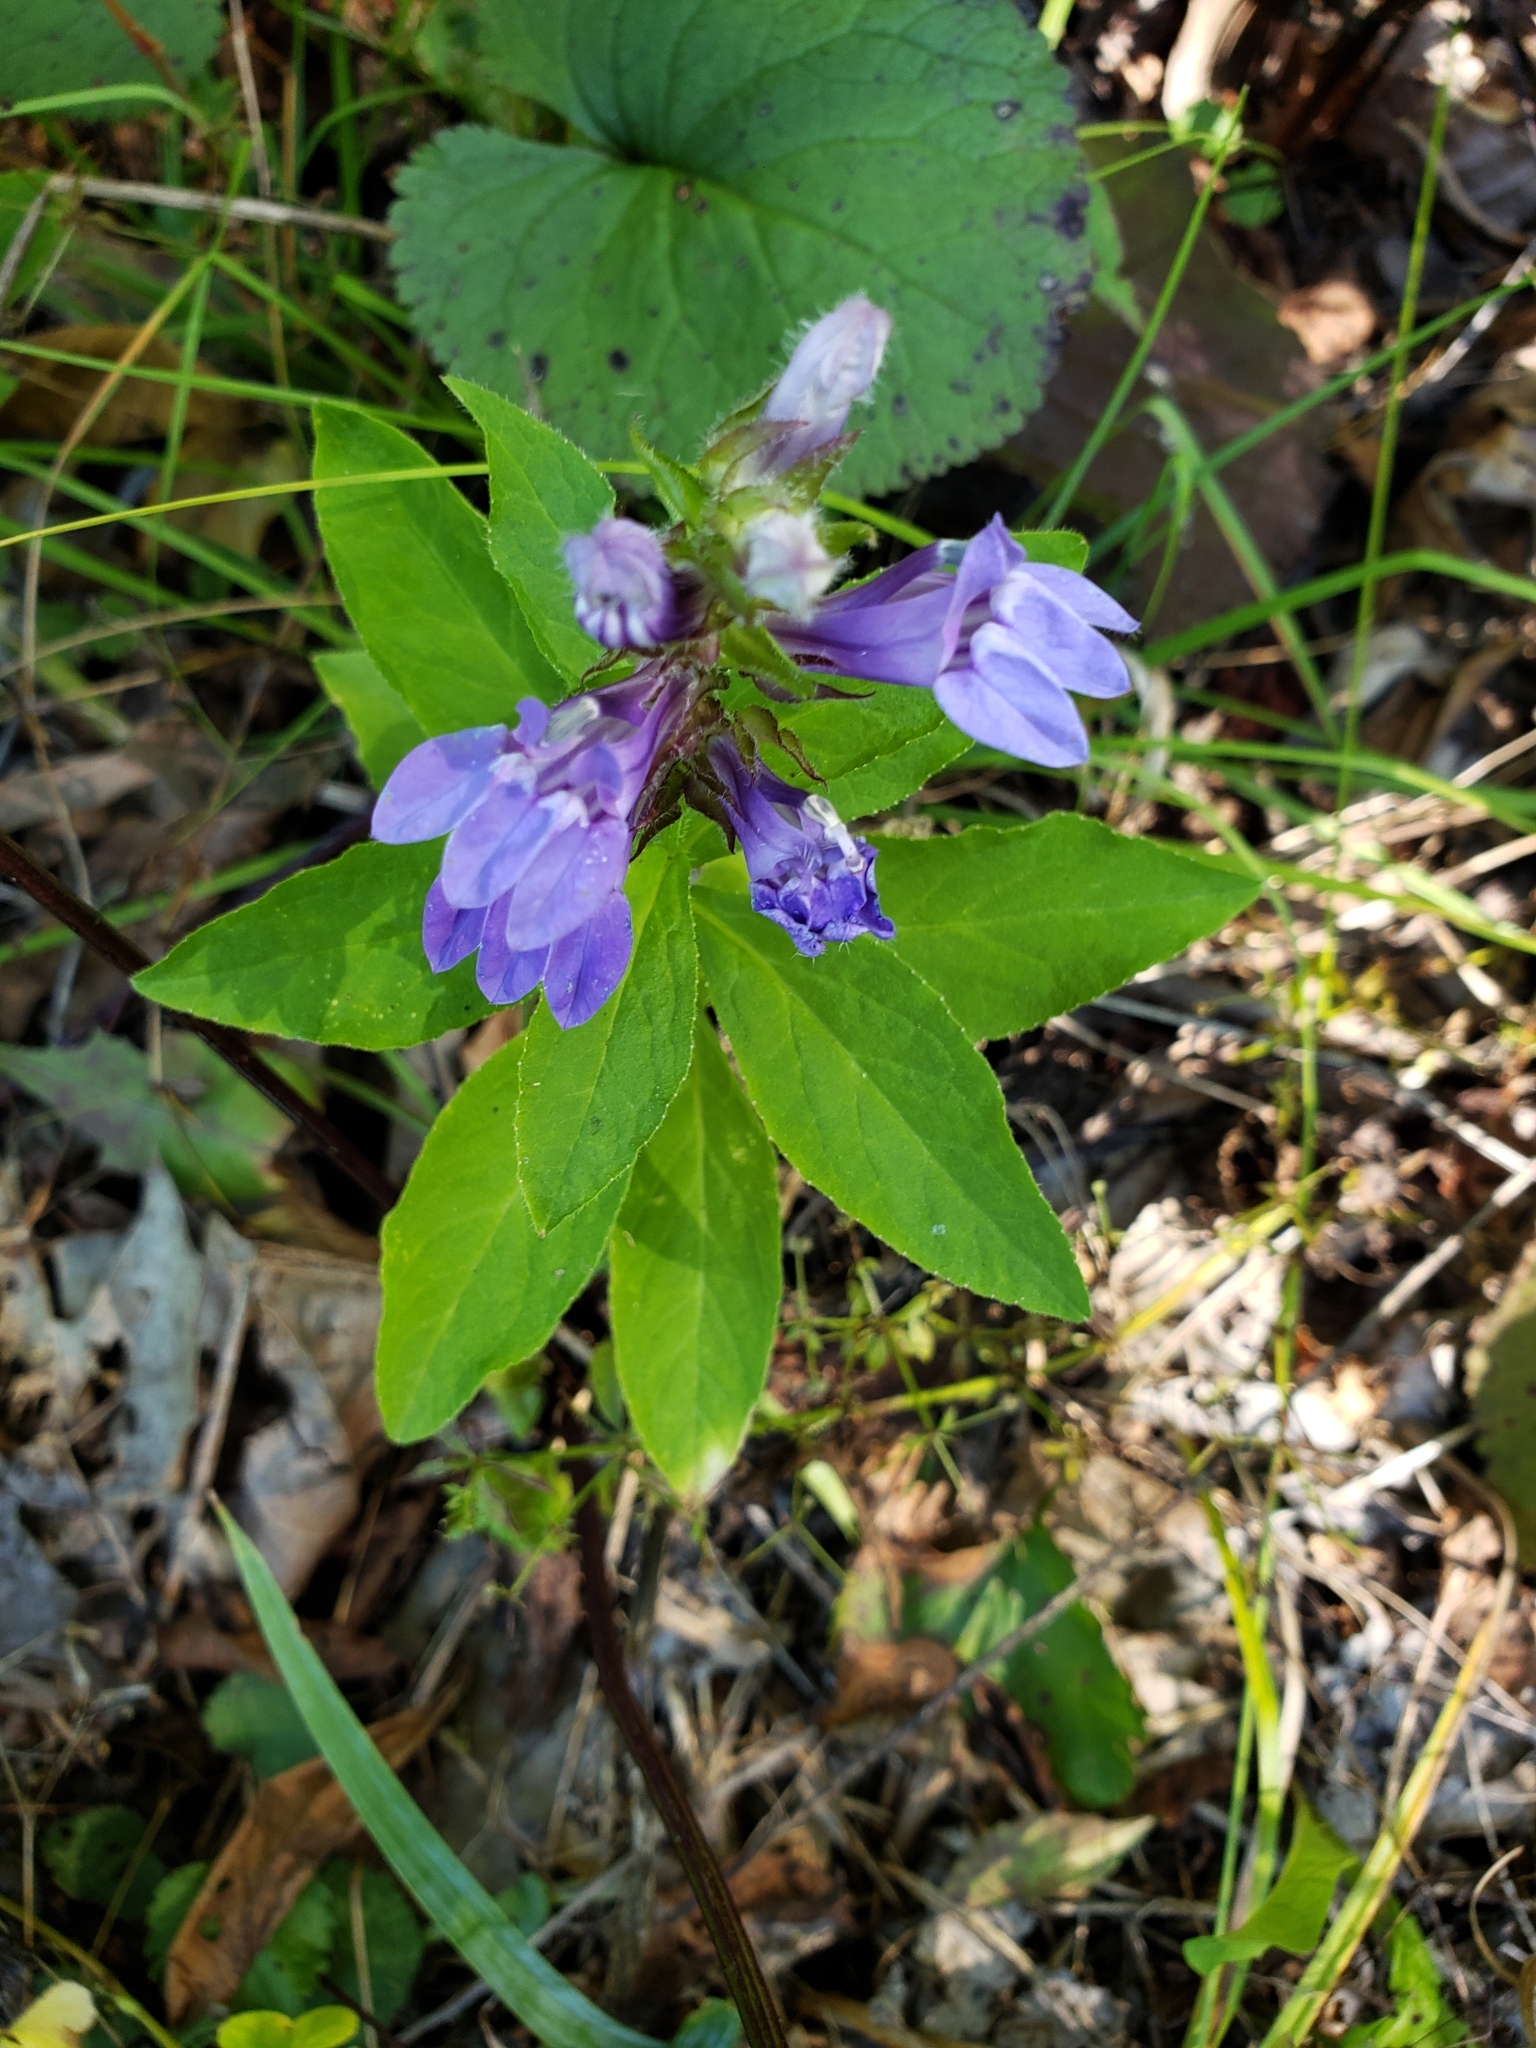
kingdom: Plantae
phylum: Tracheophyta
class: Magnoliopsida
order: Asterales
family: Campanulaceae
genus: Lobelia
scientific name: Lobelia siphilitica
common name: Great lobelia
